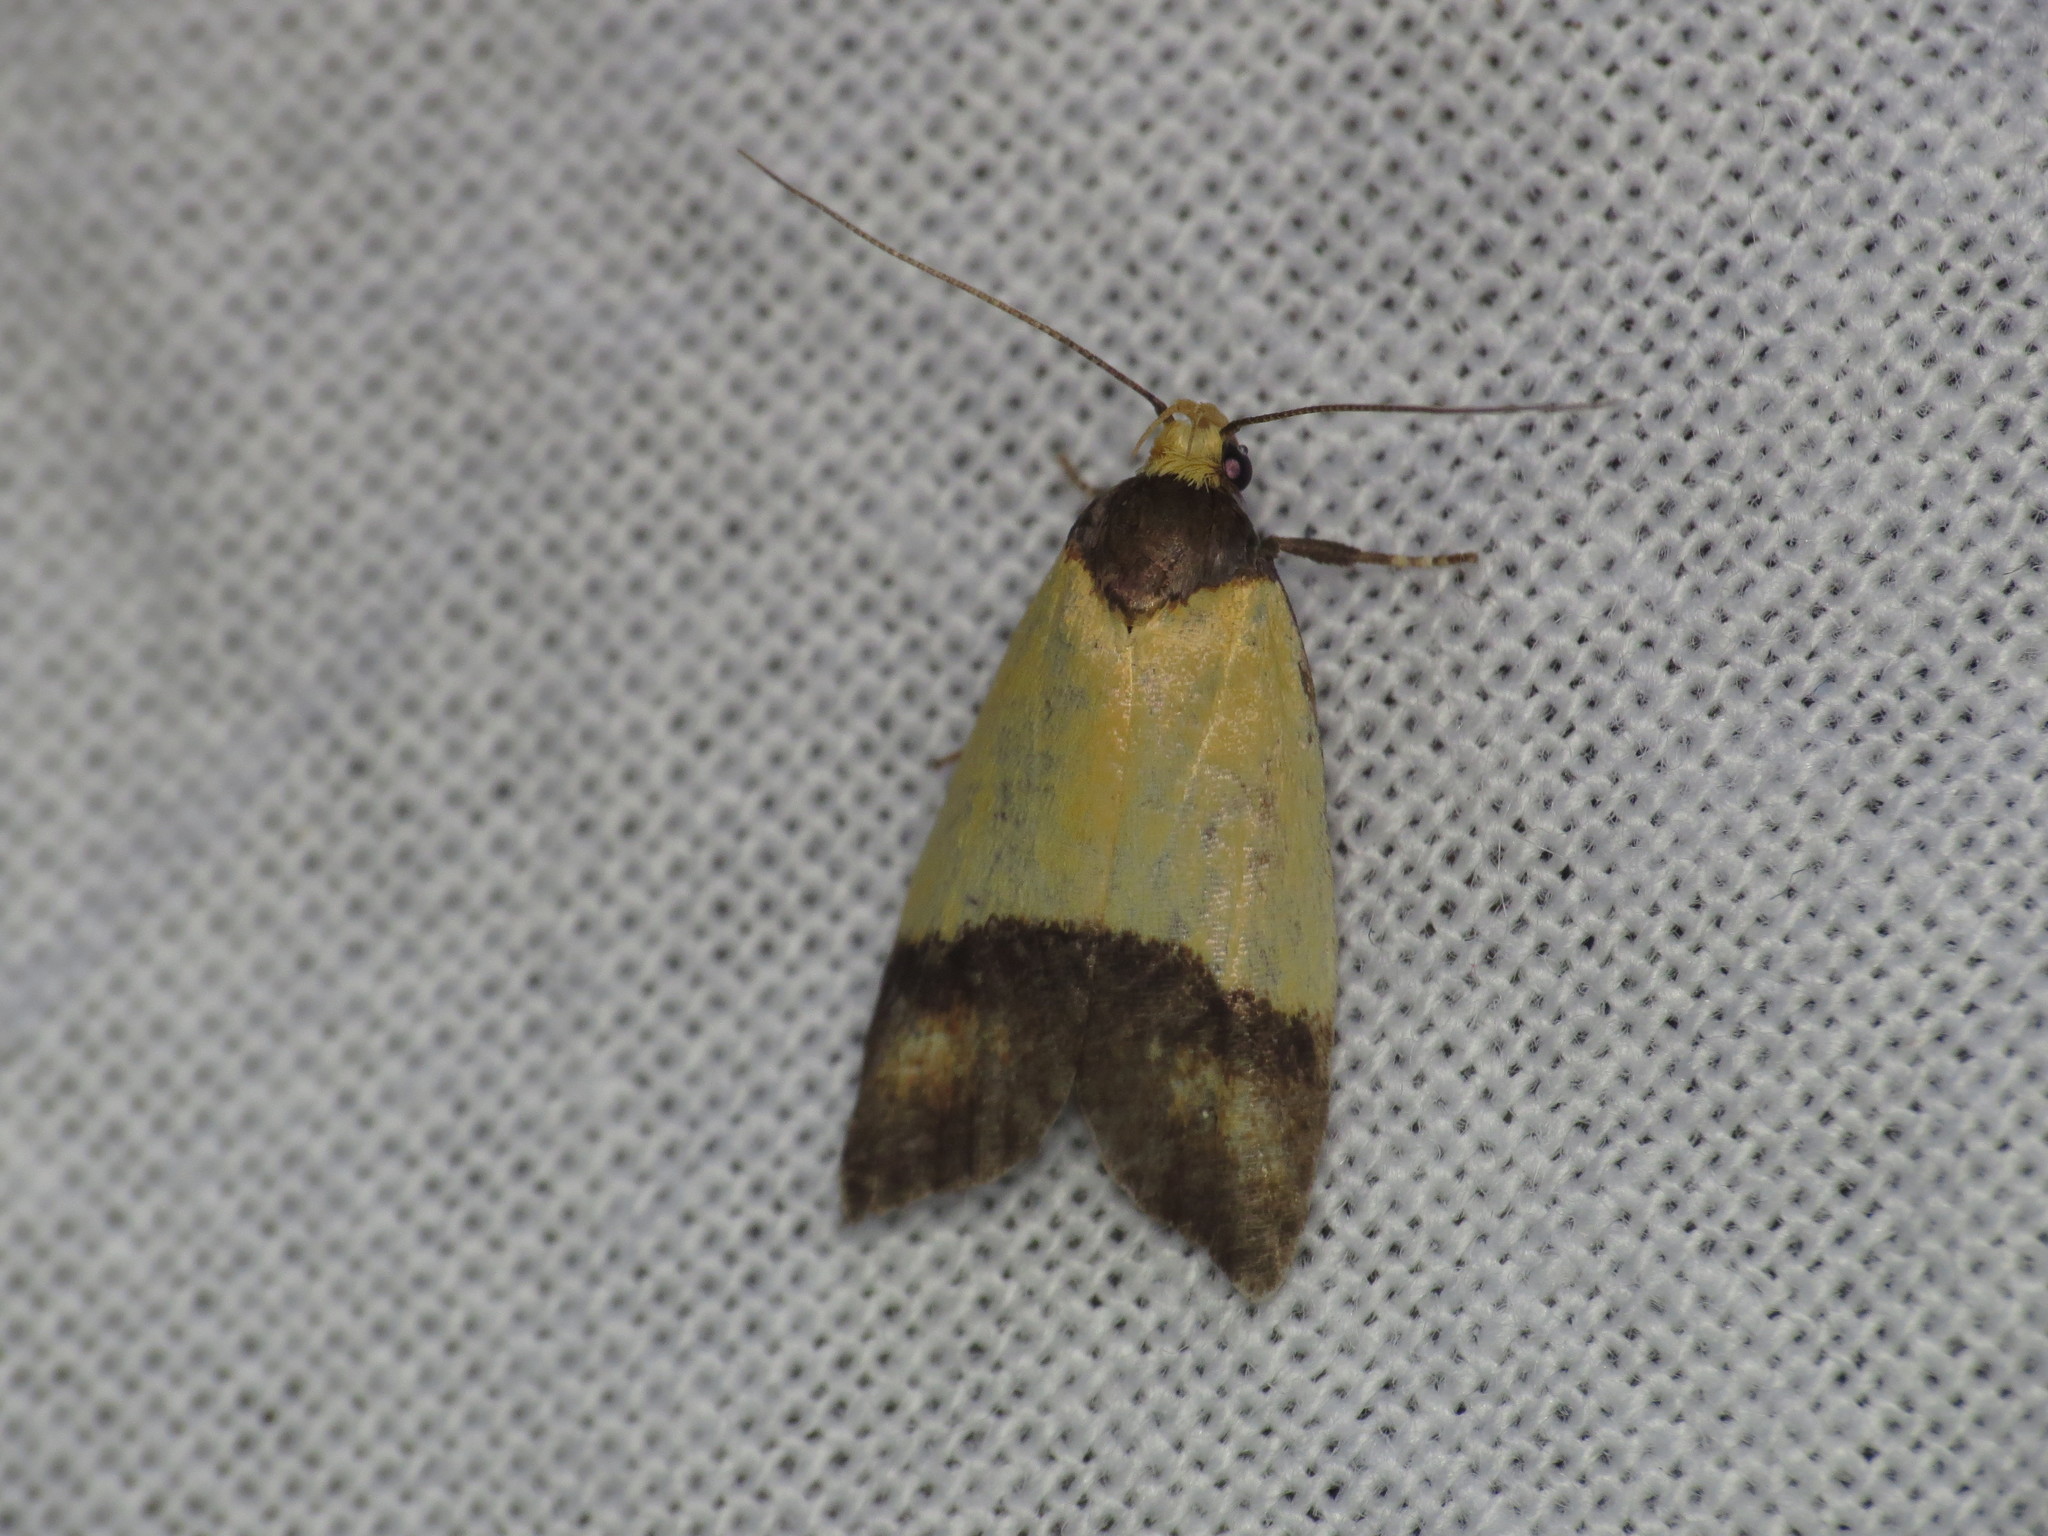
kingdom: Animalia
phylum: Arthropoda
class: Insecta
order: Lepidoptera
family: Oecophoridae
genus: Heteroteucha
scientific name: Heteroteucha dichroella
